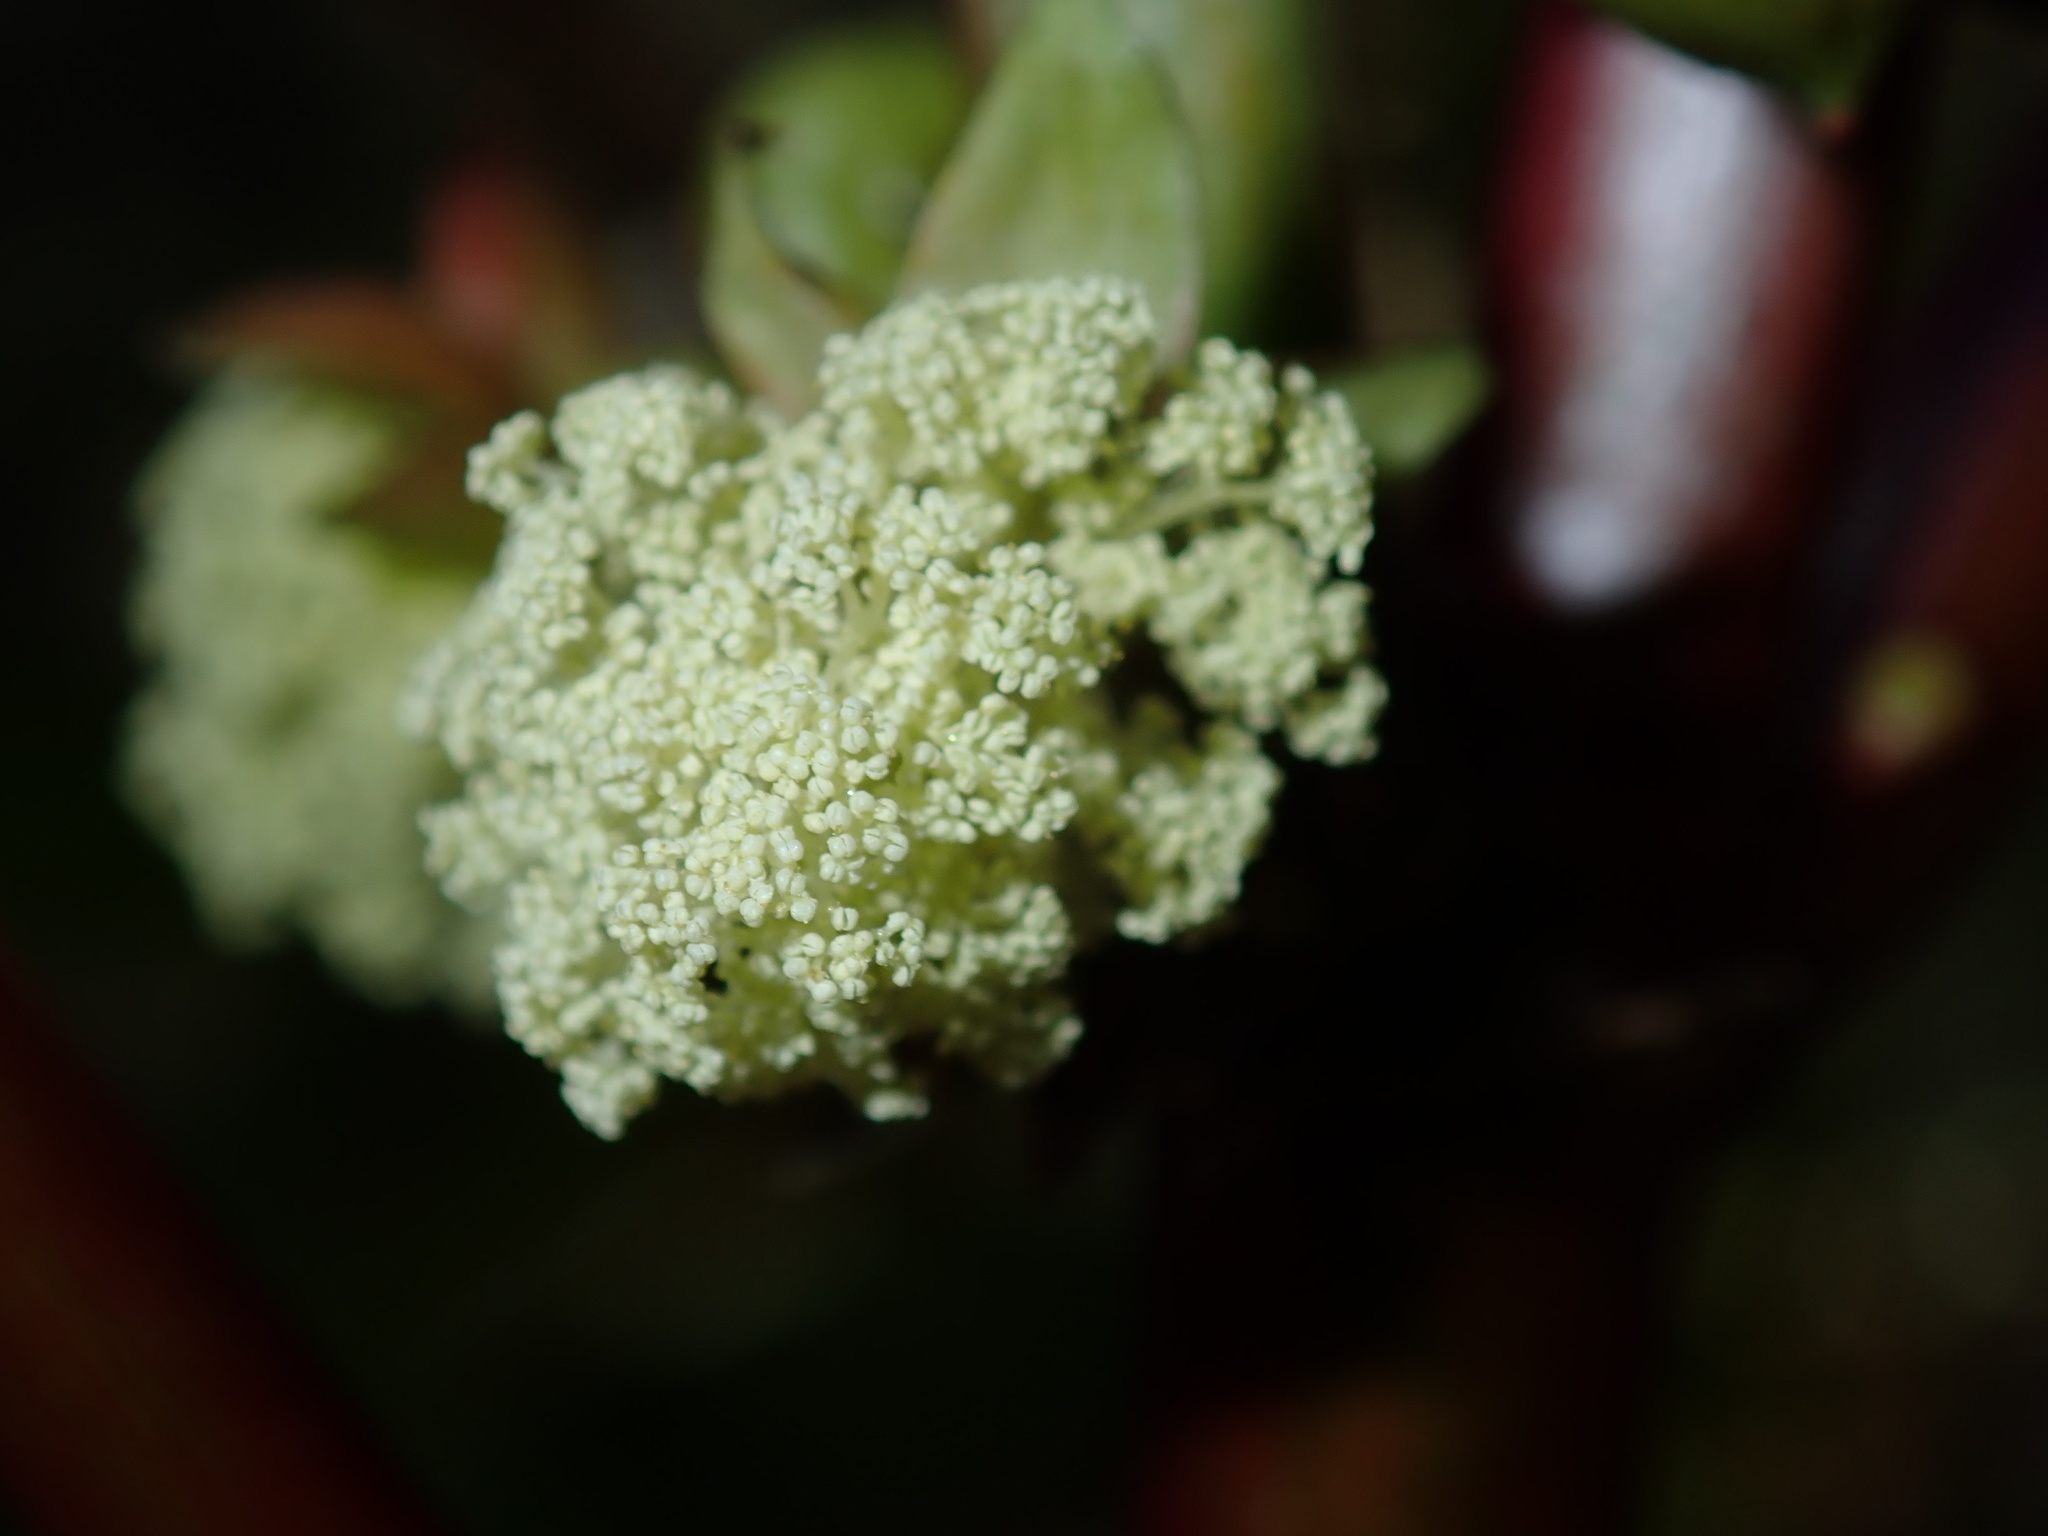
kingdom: Plantae
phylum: Tracheophyta
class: Magnoliopsida
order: Malpighiales
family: Euphorbiaceae
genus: Ricinus
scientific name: Ricinus communis
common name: Castor-oil-plant
